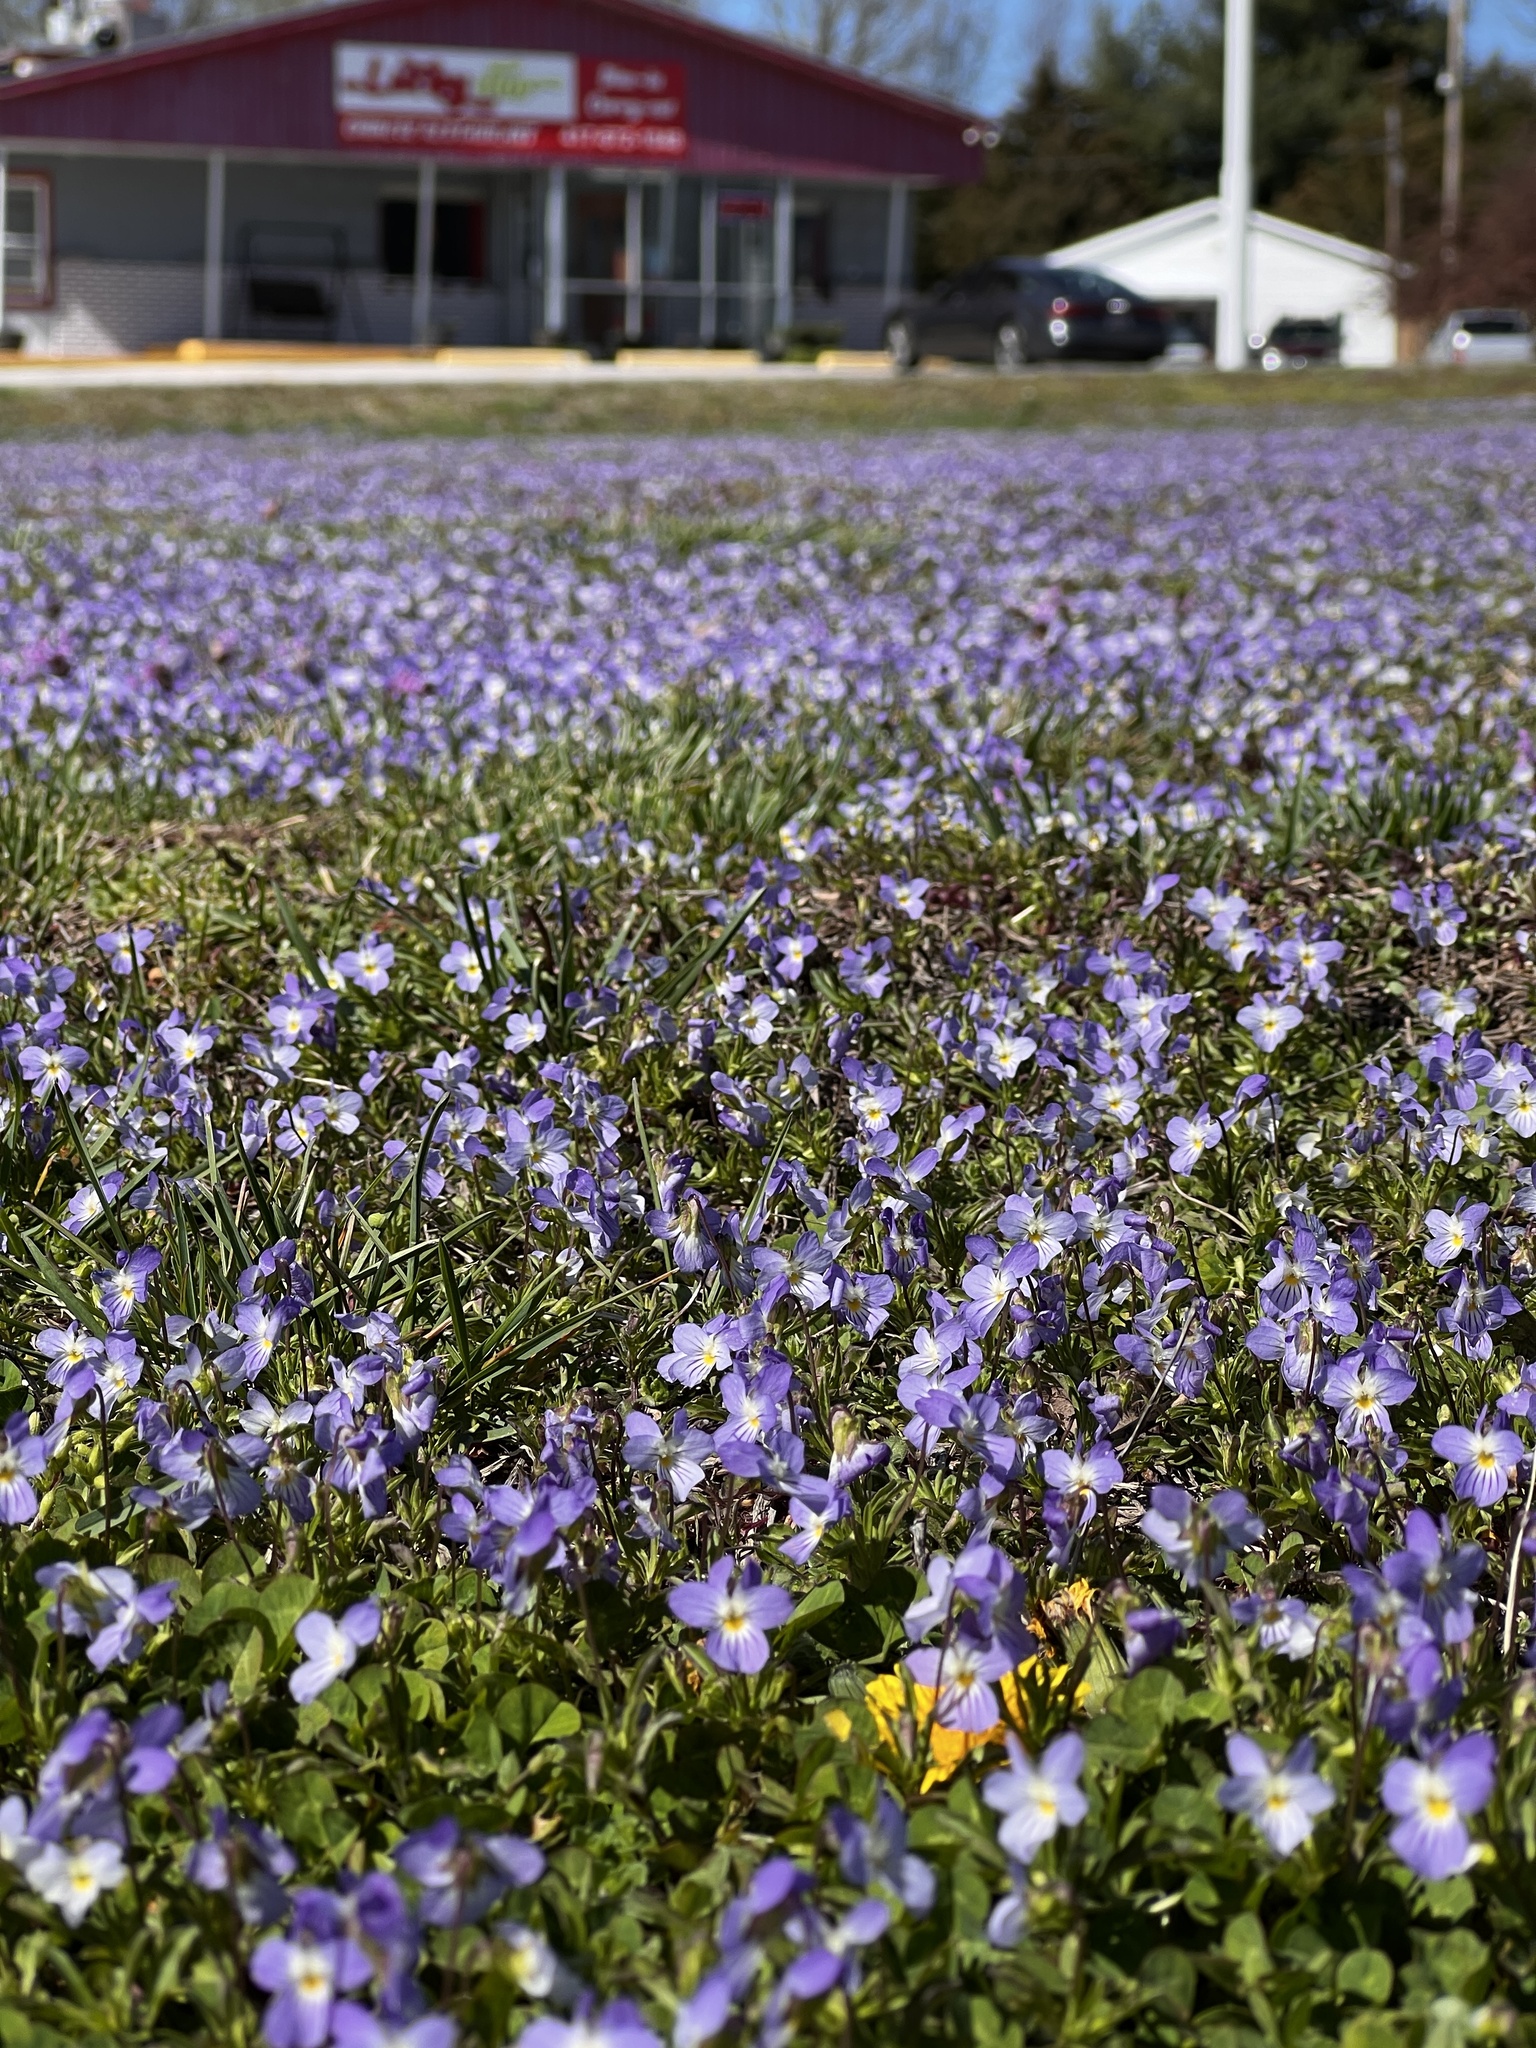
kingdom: Plantae
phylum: Tracheophyta
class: Magnoliopsida
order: Malpighiales
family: Violaceae
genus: Viola
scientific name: Viola rafinesquei
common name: American field pansy
